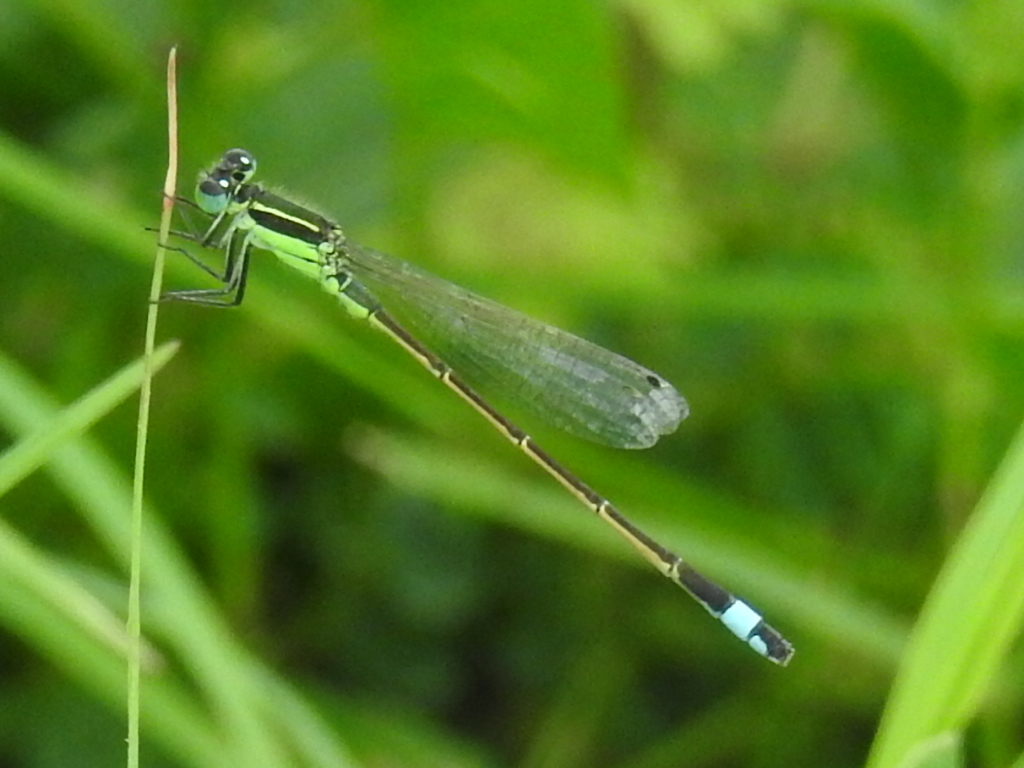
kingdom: Animalia
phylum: Arthropoda
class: Insecta
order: Odonata
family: Coenagrionidae
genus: Ischnura
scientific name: Ischnura ramburii
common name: Rambur's forktail
